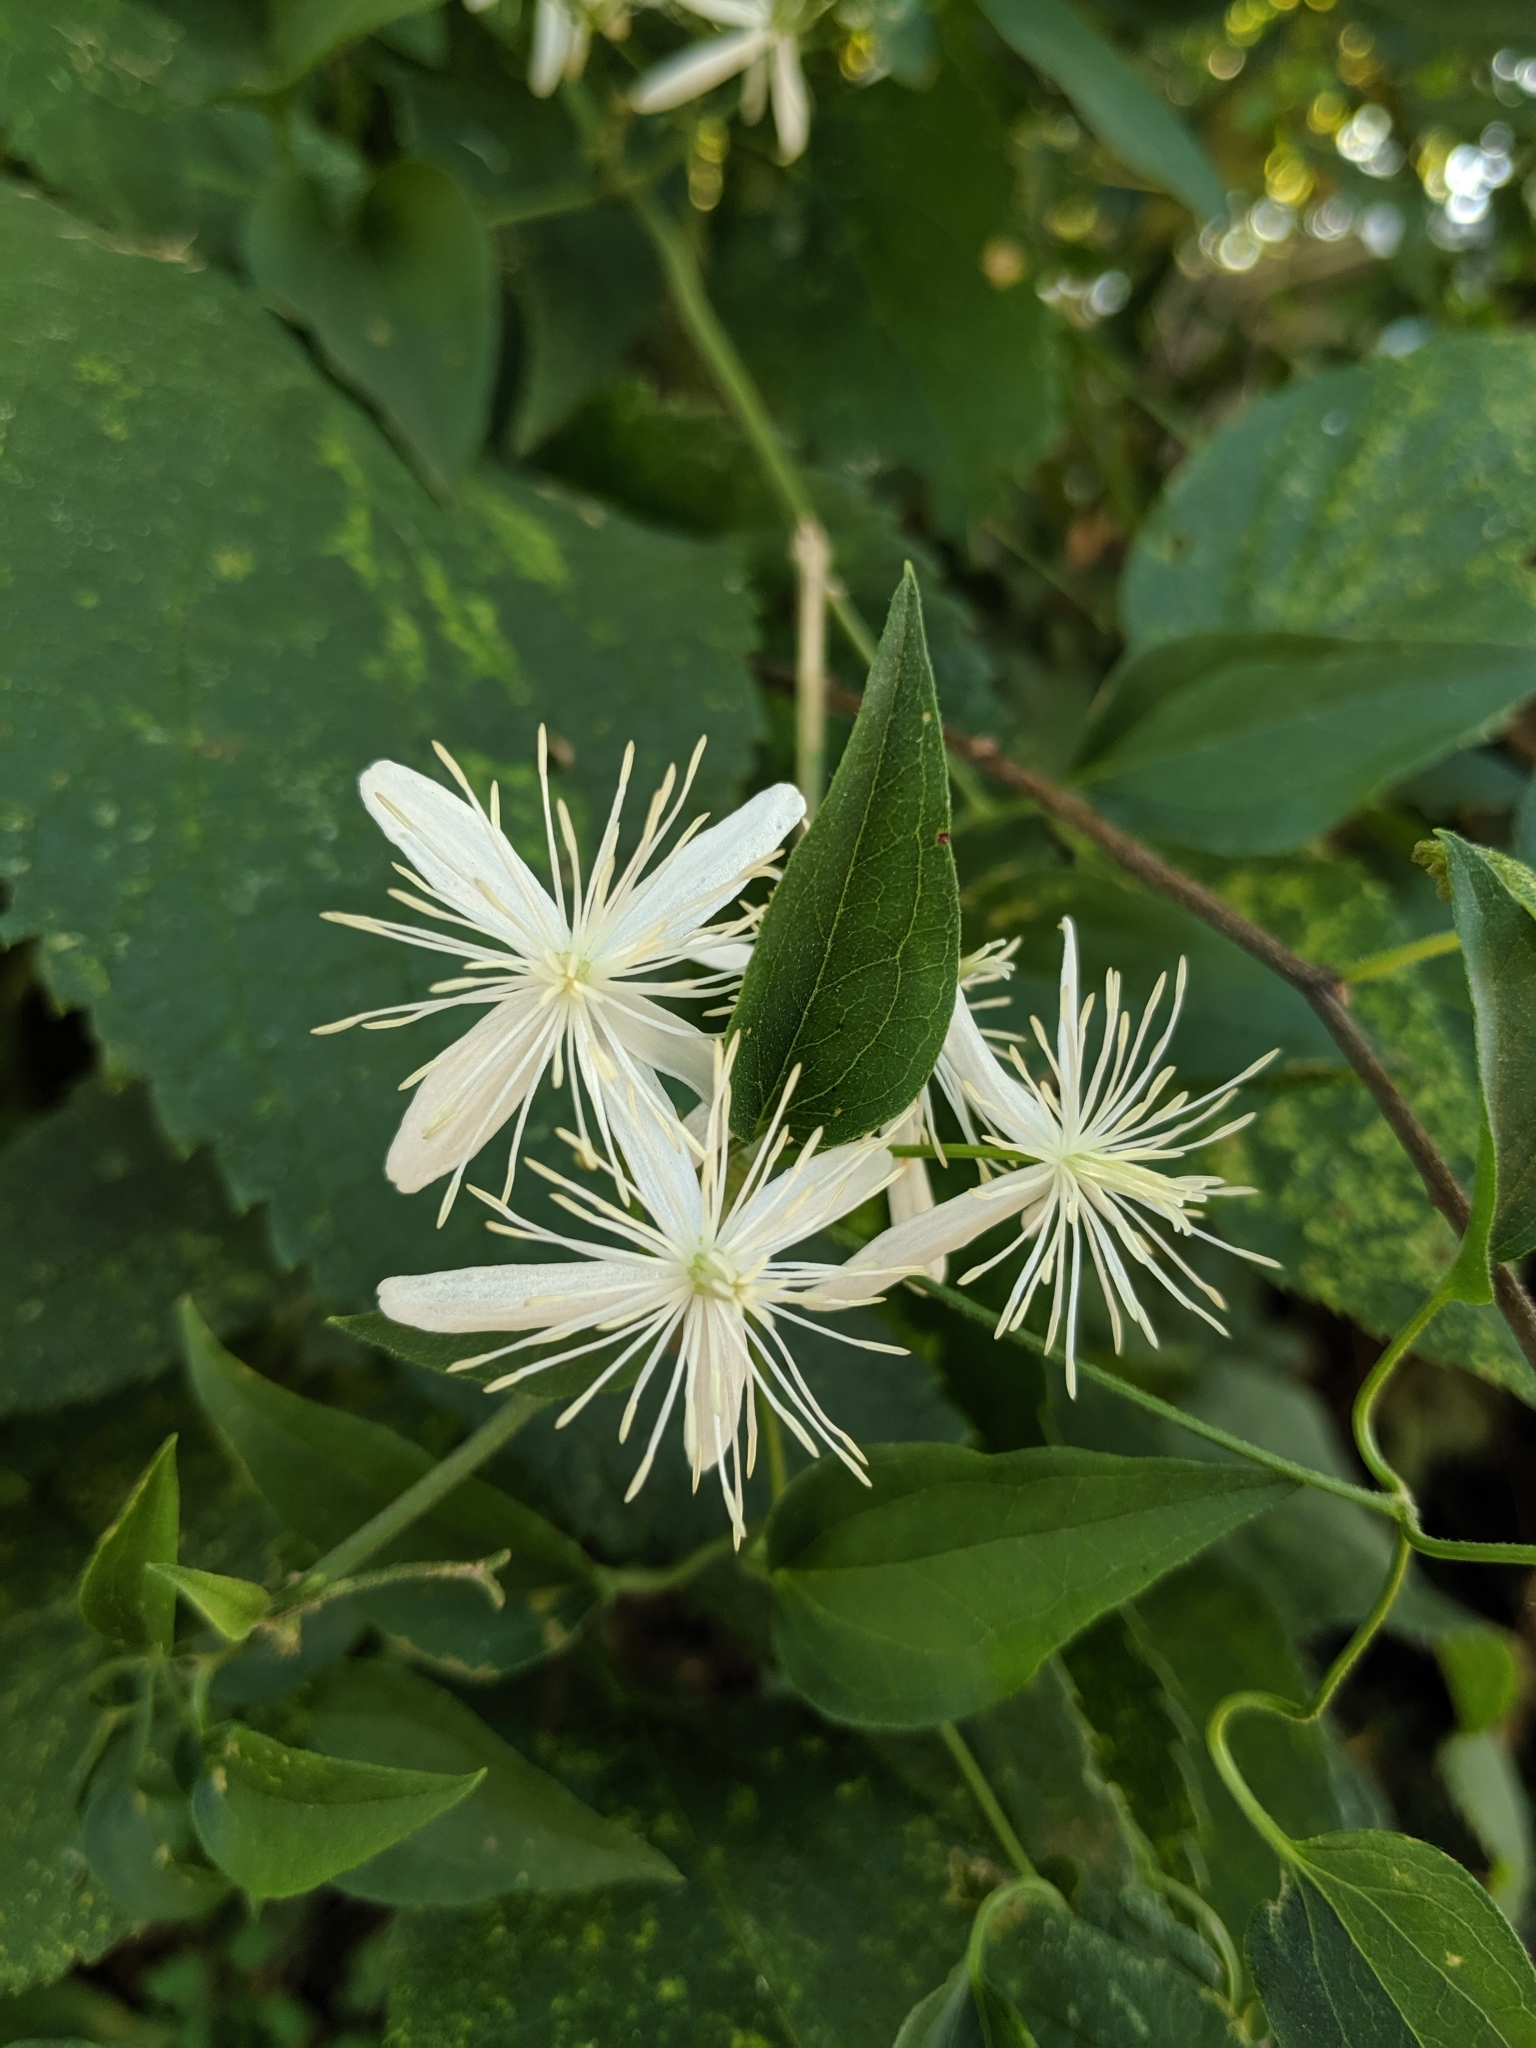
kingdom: Plantae
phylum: Tracheophyta
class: Magnoliopsida
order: Ranunculales
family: Ranunculaceae
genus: Clematis
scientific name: Clematis terniflora
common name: Sweet autumn clematis
